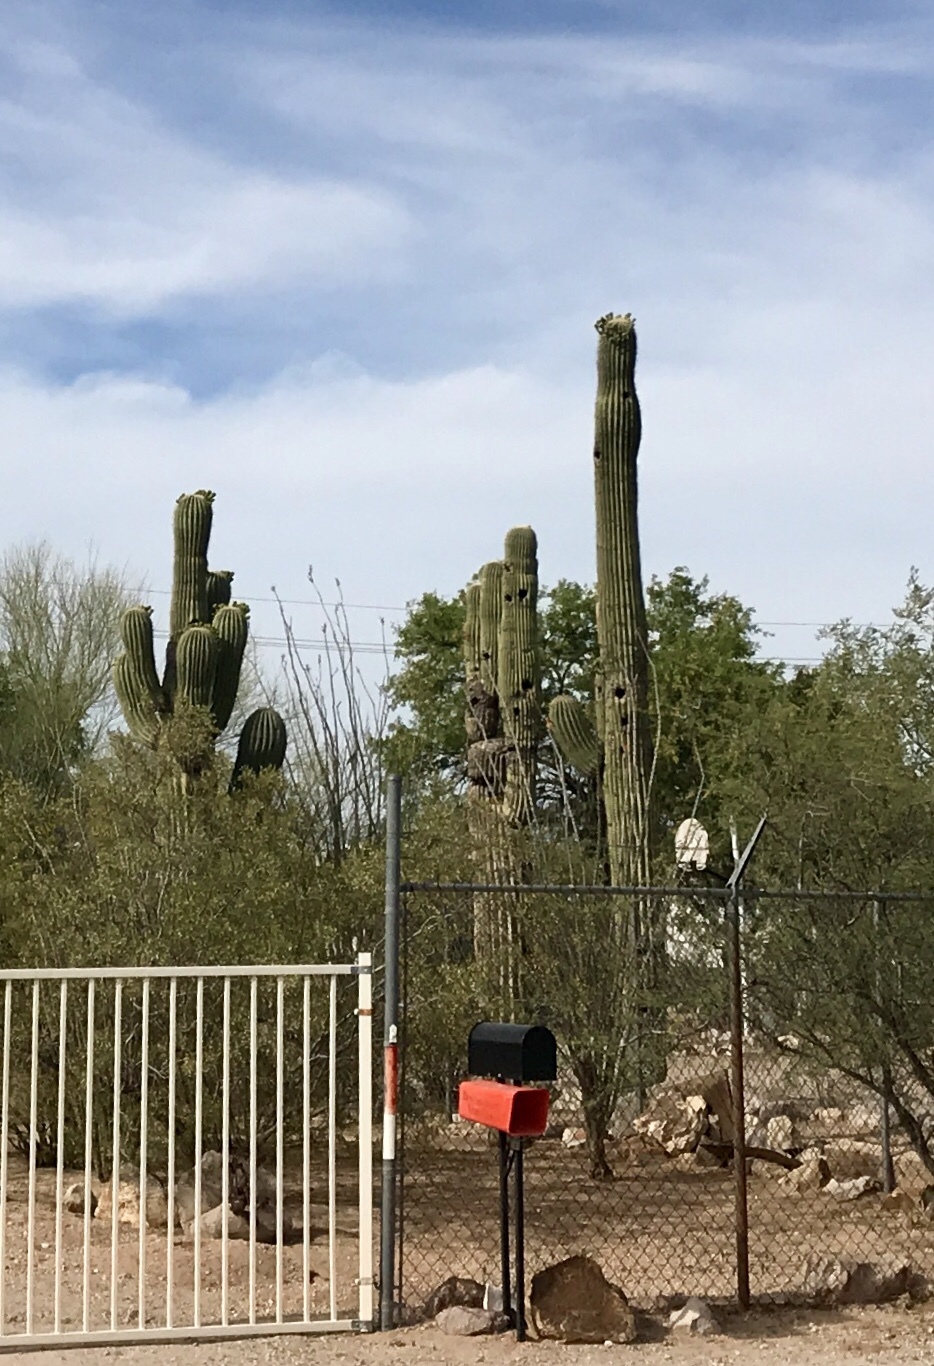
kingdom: Plantae
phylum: Tracheophyta
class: Magnoliopsida
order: Caryophyllales
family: Cactaceae
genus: Carnegiea
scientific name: Carnegiea gigantea
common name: Saguaro
